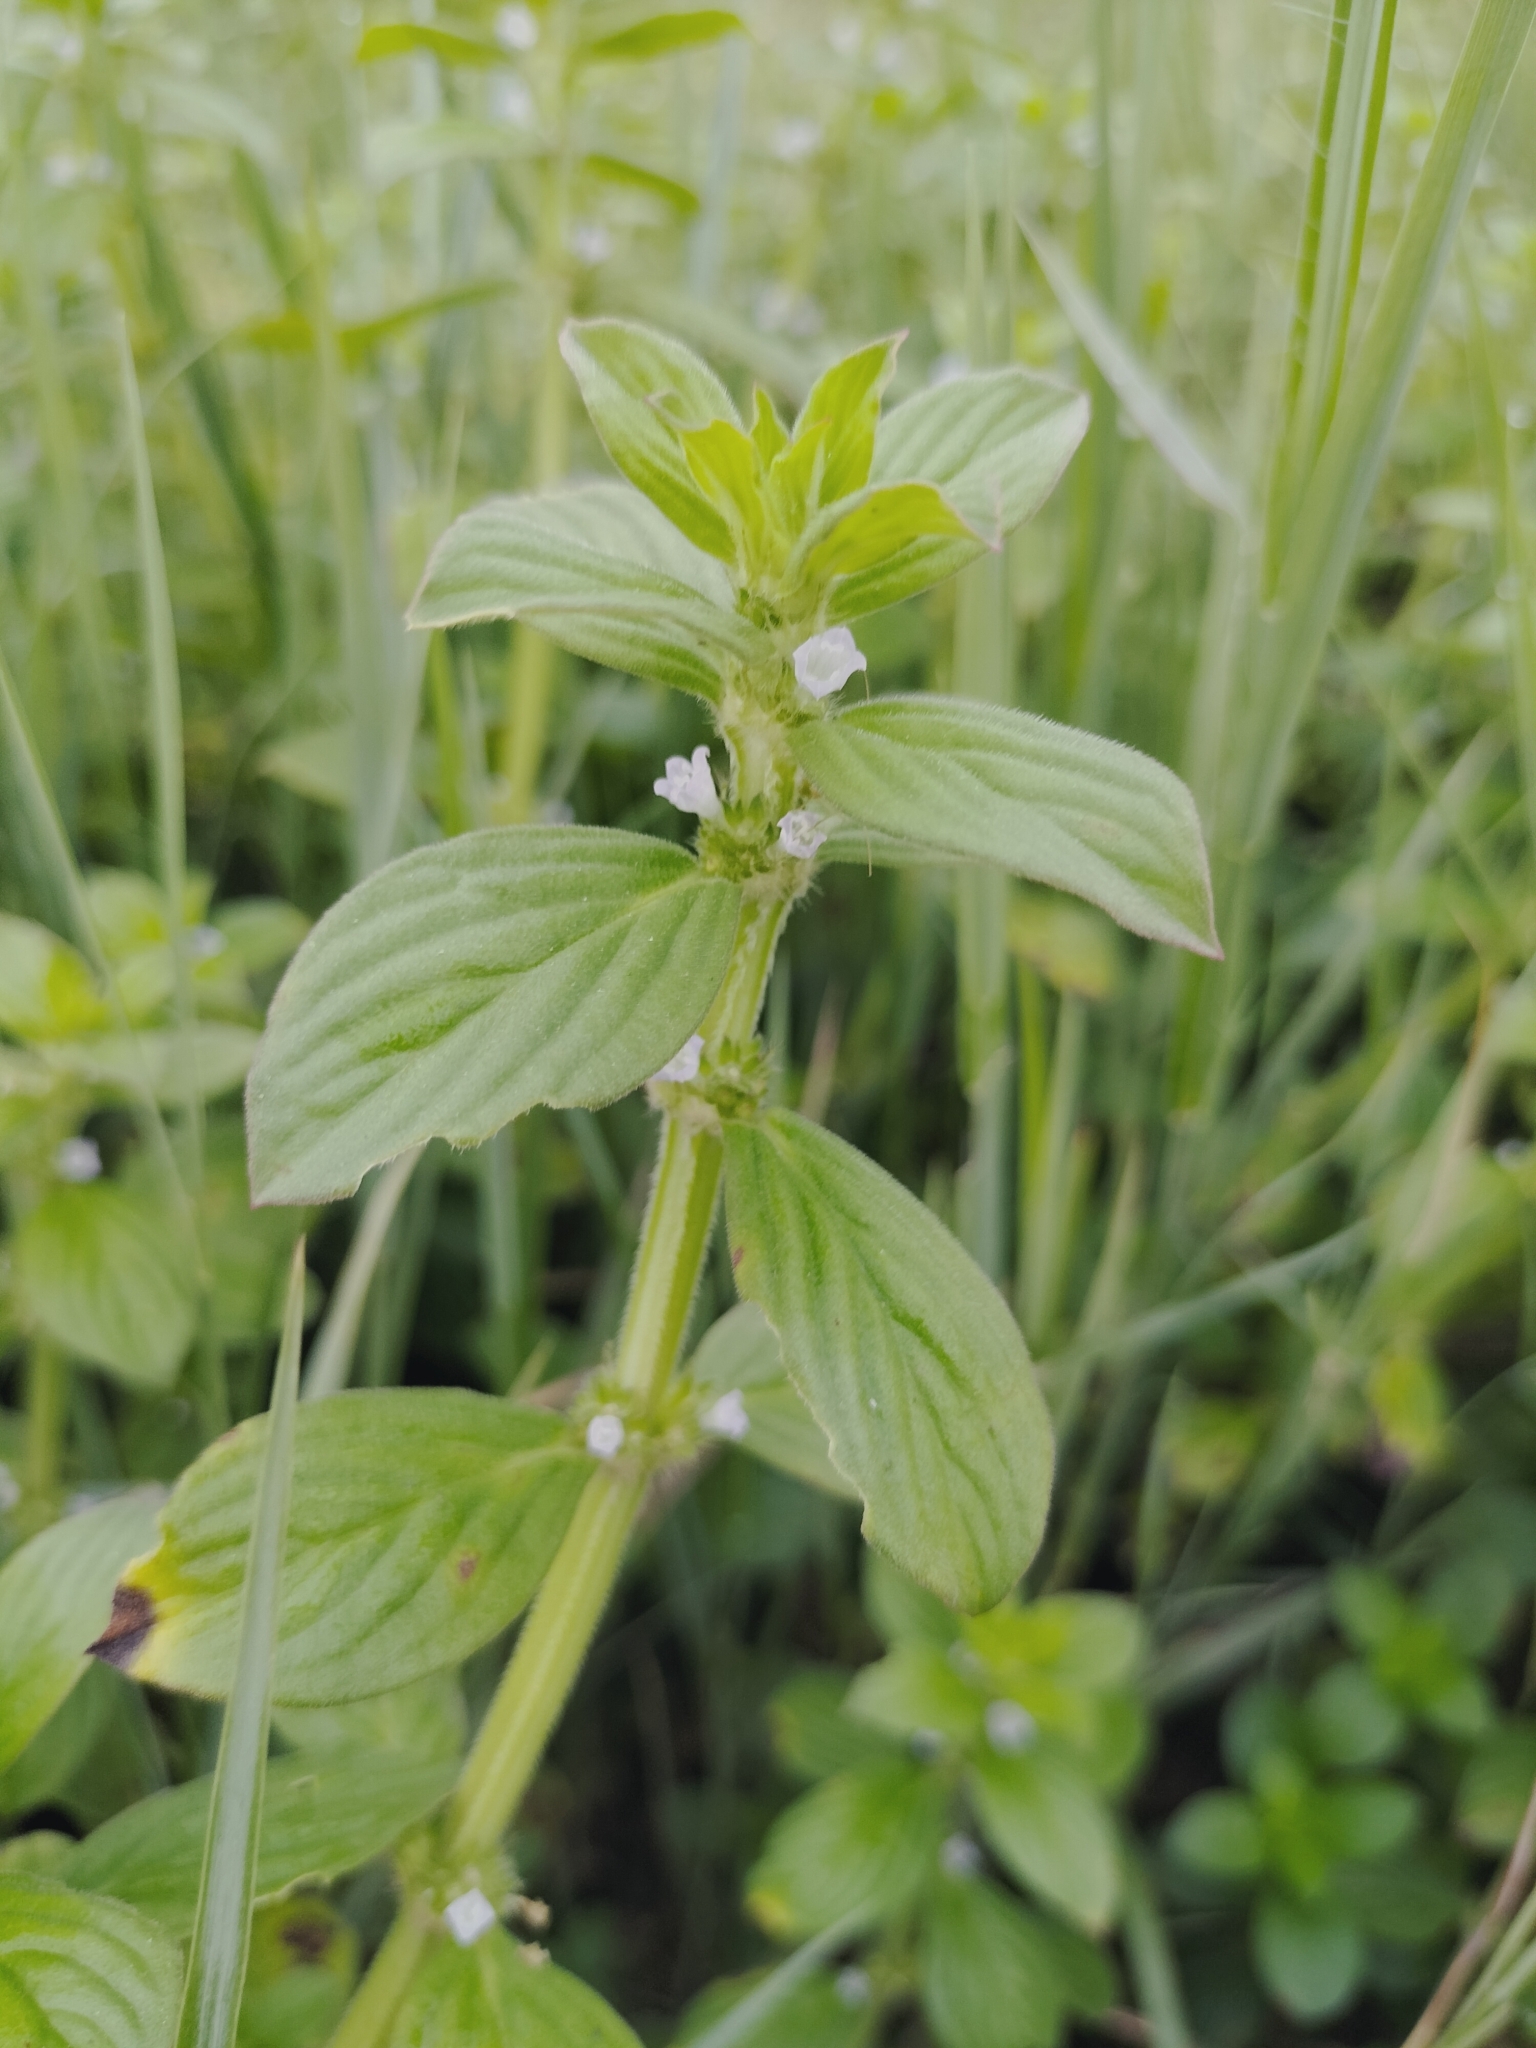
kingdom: Plantae
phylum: Tracheophyta
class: Magnoliopsida
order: Gentianales
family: Rubiaceae
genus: Spermacoce
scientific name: Spermacoce latifolia
